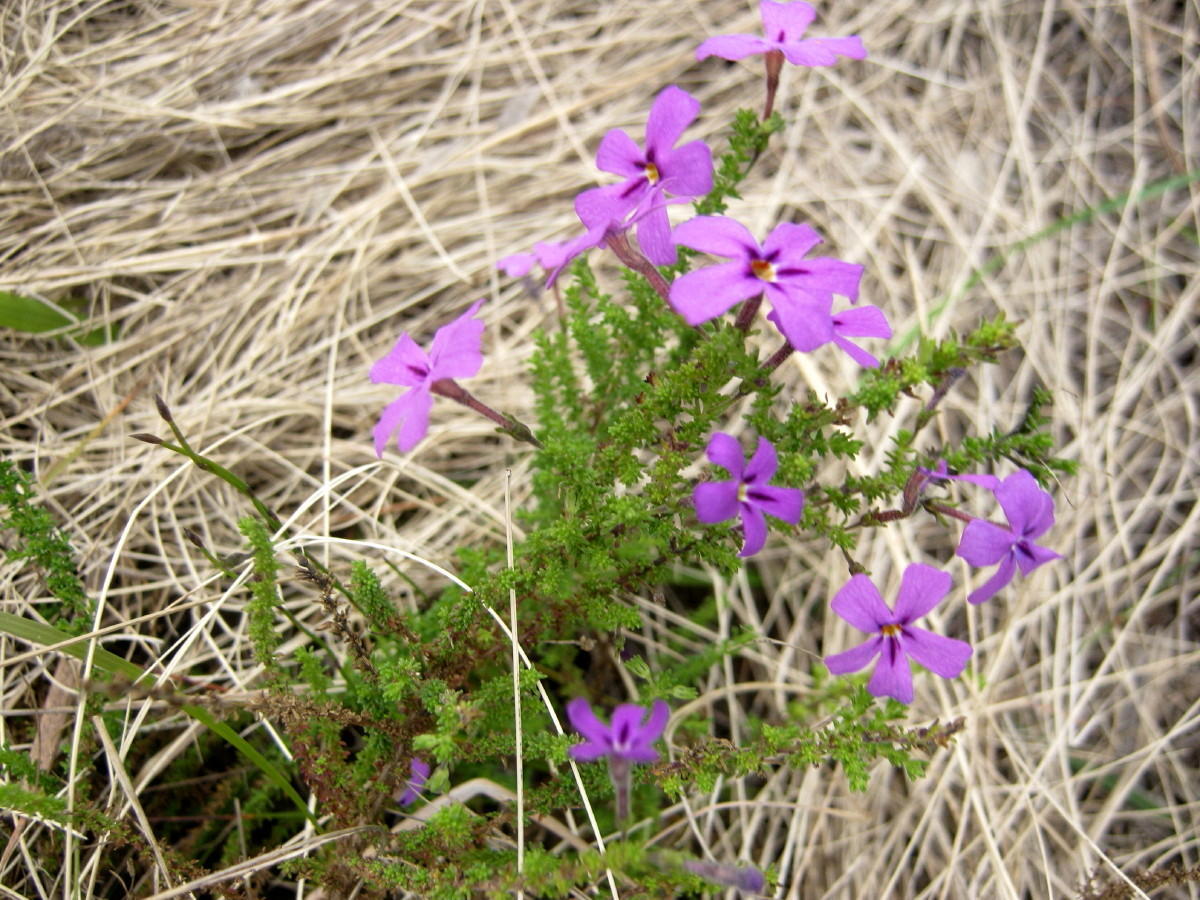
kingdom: Plantae
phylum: Tracheophyta
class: Magnoliopsida
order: Lamiales
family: Scrophulariaceae
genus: Jamesbrittenia
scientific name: Jamesbrittenia tenuifolia
